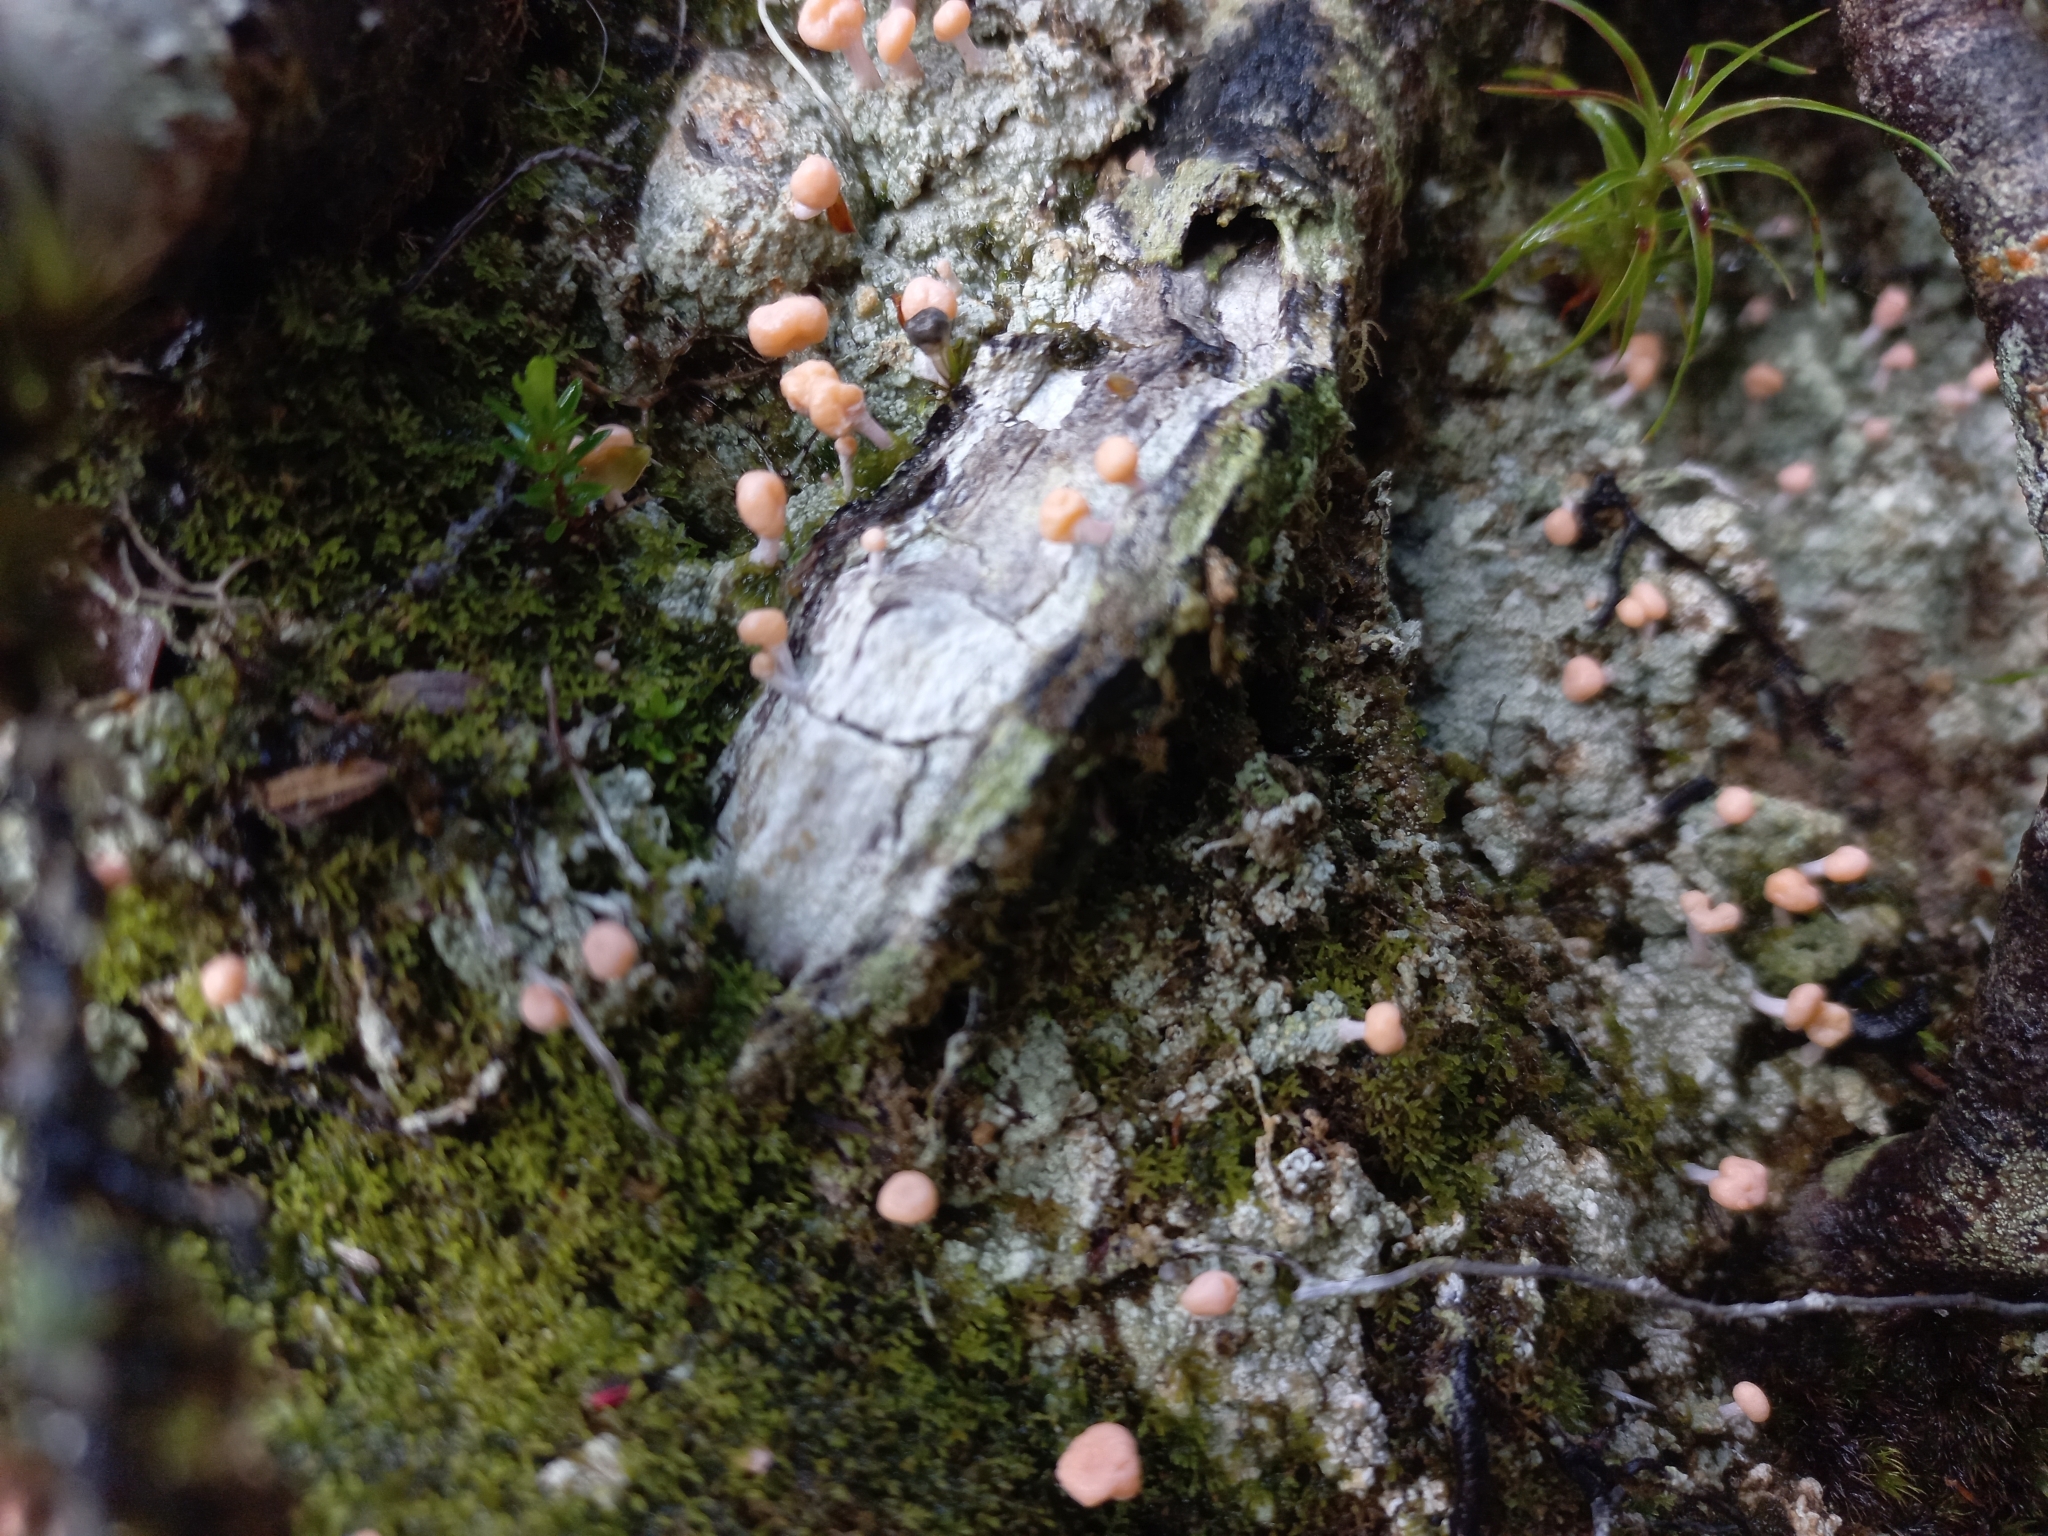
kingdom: Fungi
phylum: Ascomycota
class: Lecanoromycetes
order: Pertusariales
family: Icmadophilaceae
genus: Dibaeis
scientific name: Dibaeis arcuata
